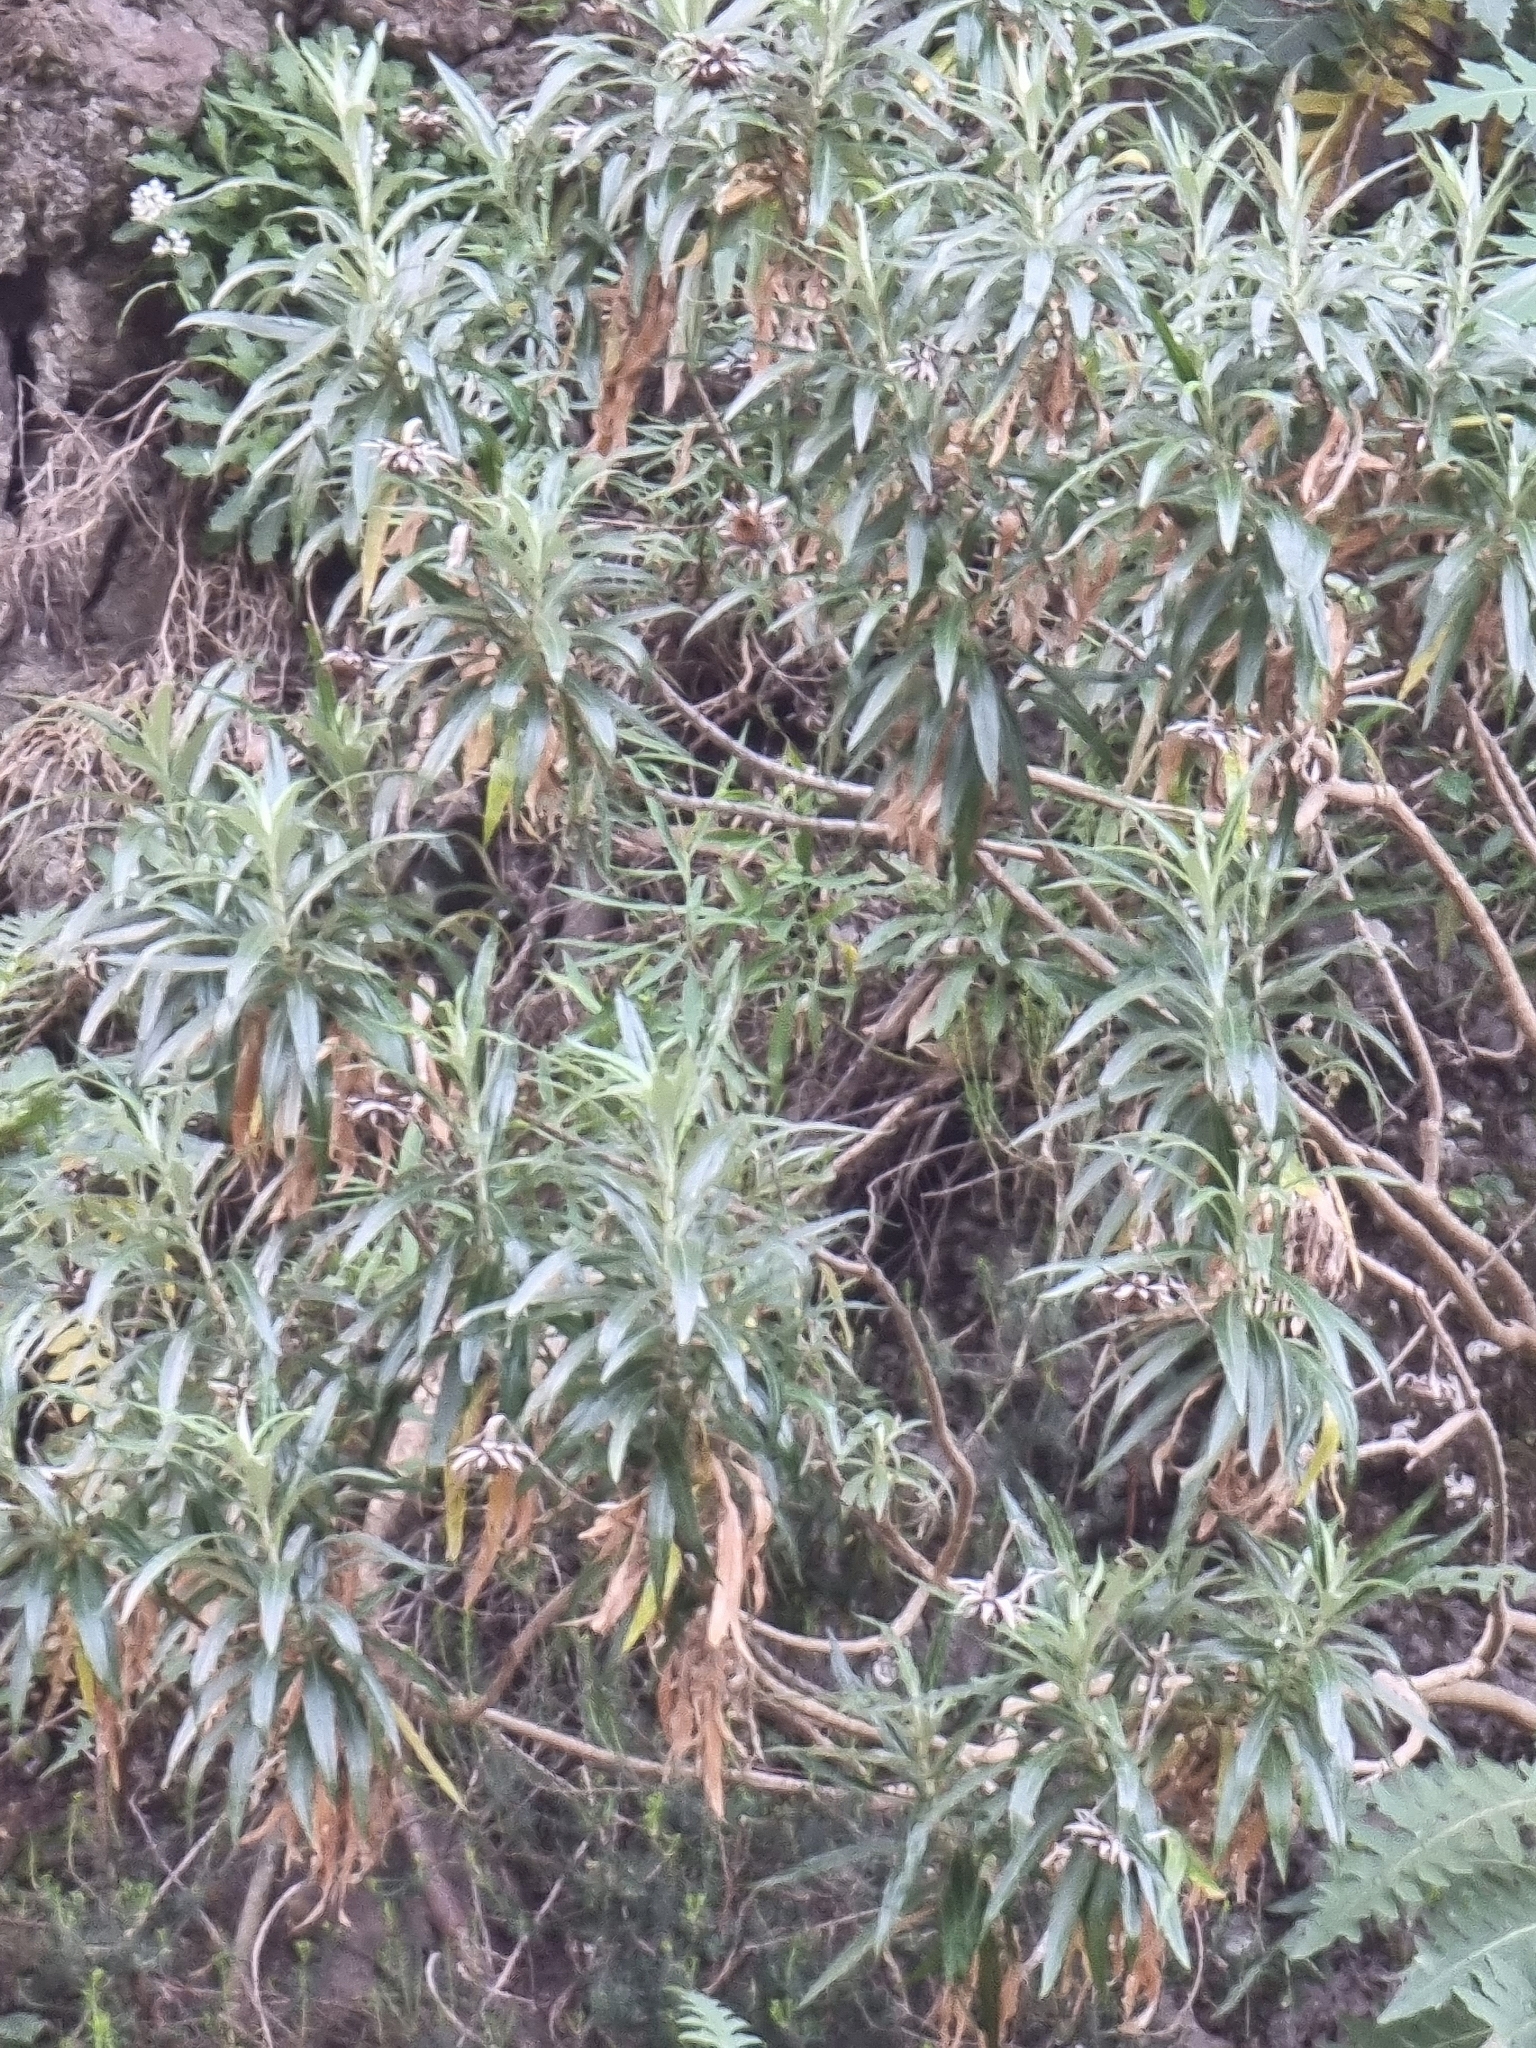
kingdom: Plantae
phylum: Tracheophyta
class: Magnoliopsida
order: Asterales
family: Asteraceae
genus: Carlina
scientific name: Carlina salicifolia
